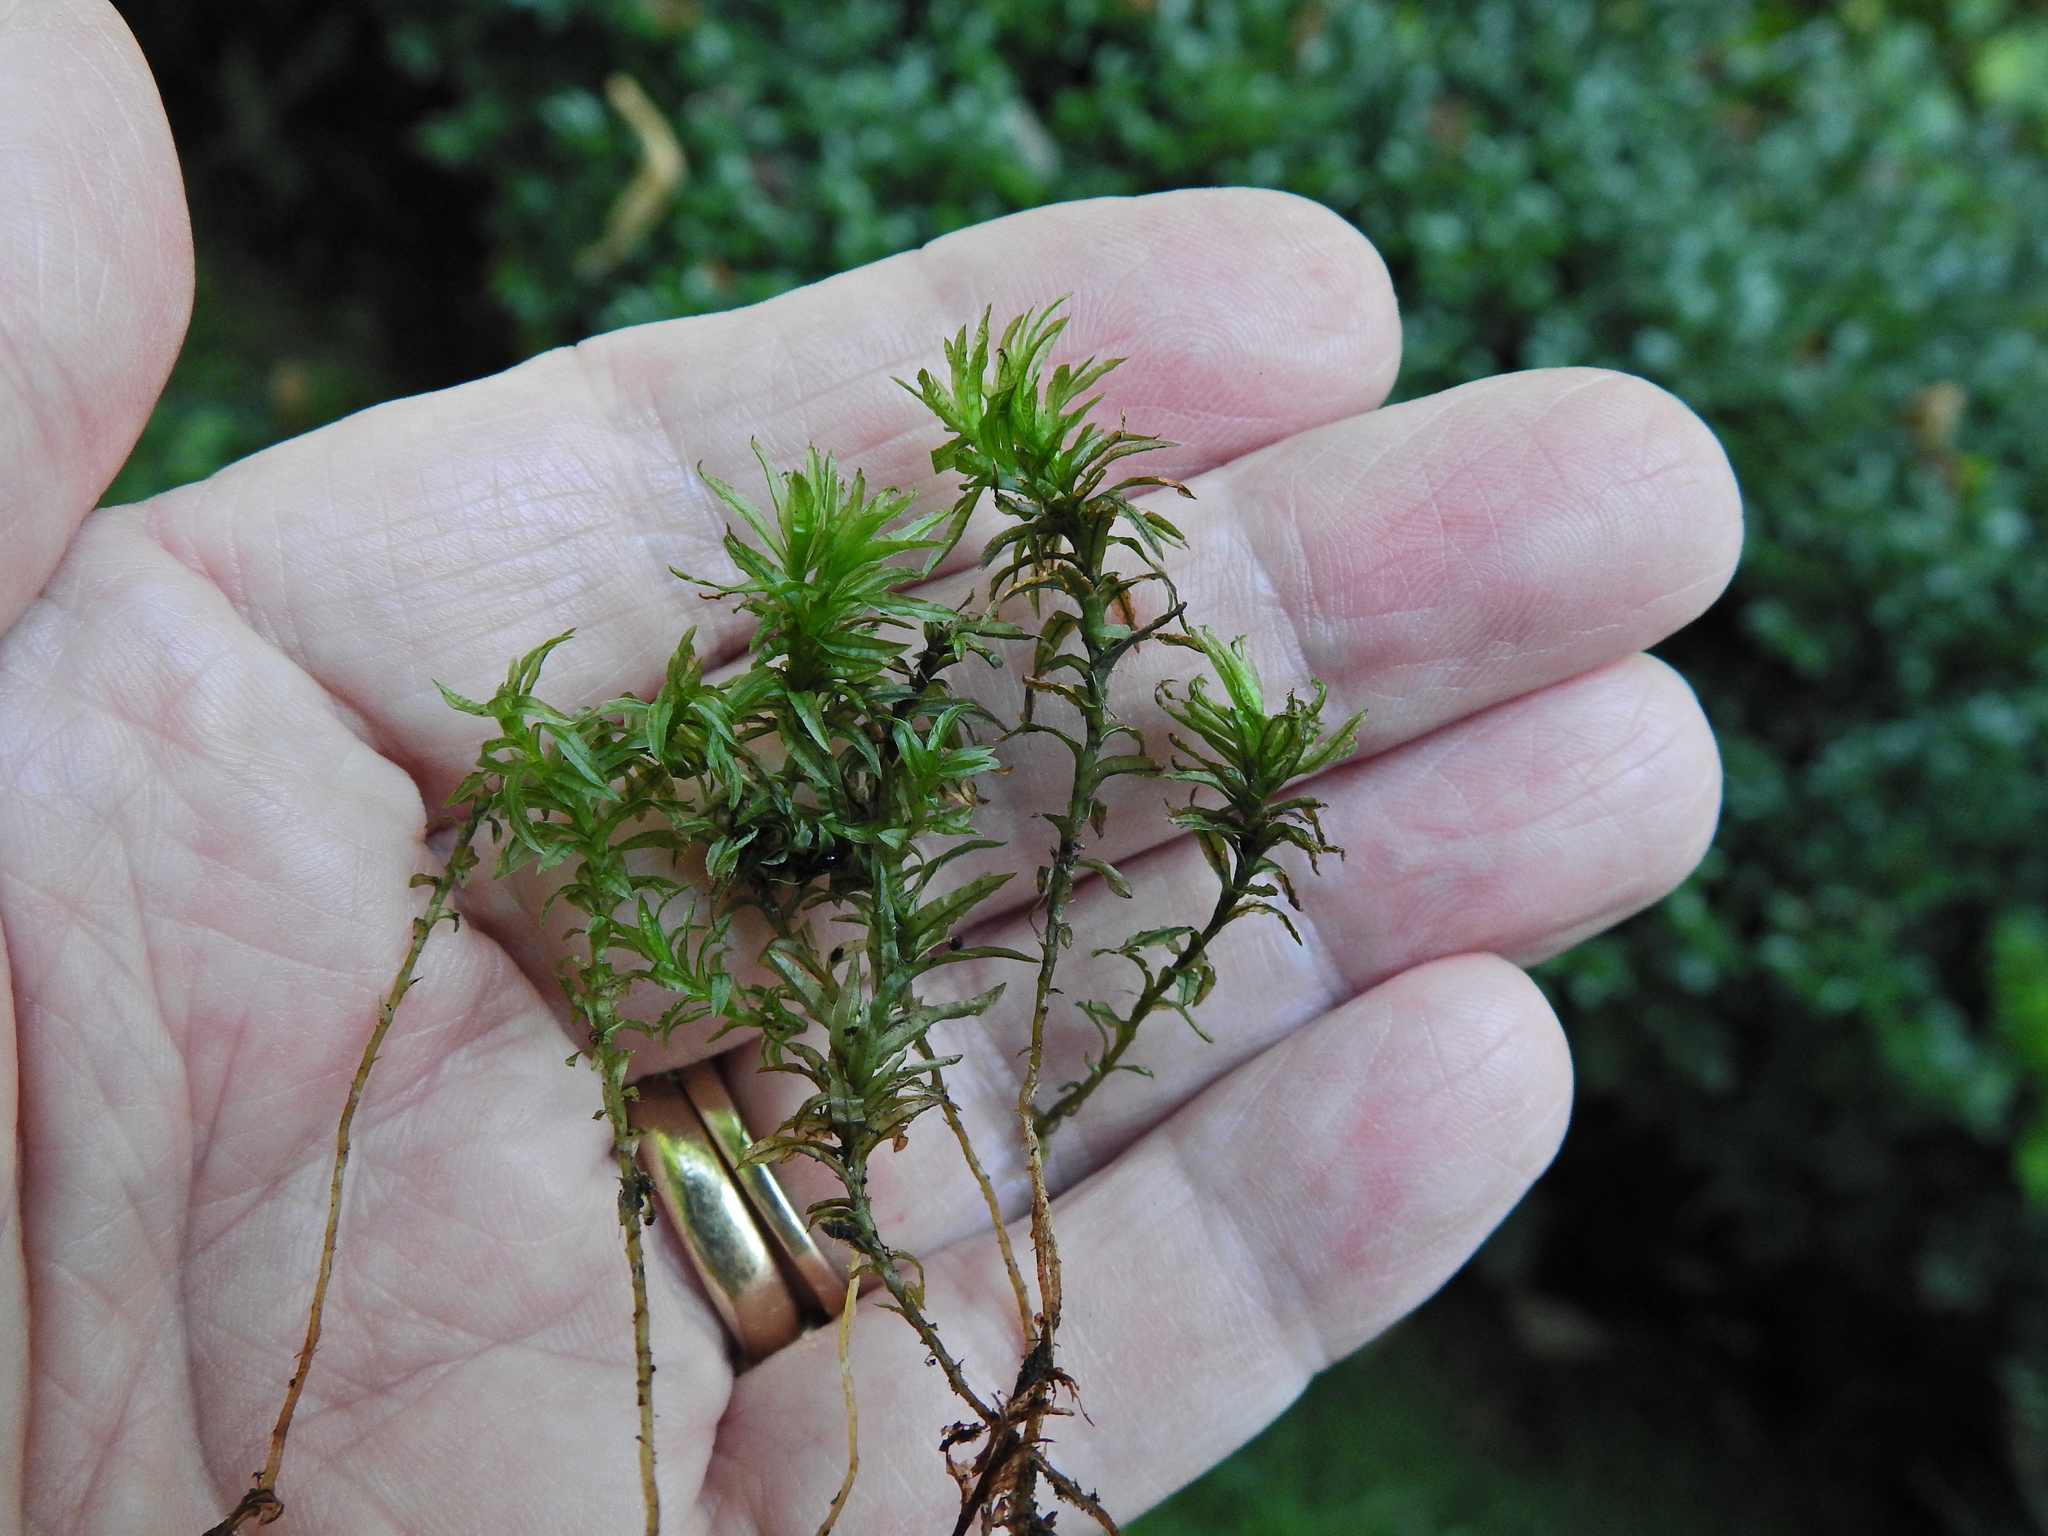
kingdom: Plantae
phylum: Bryophyta
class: Polytrichopsida
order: Polytrichales
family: Polytrichaceae
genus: Atrichum
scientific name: Atrichum undulatum
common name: Common smoothcap
